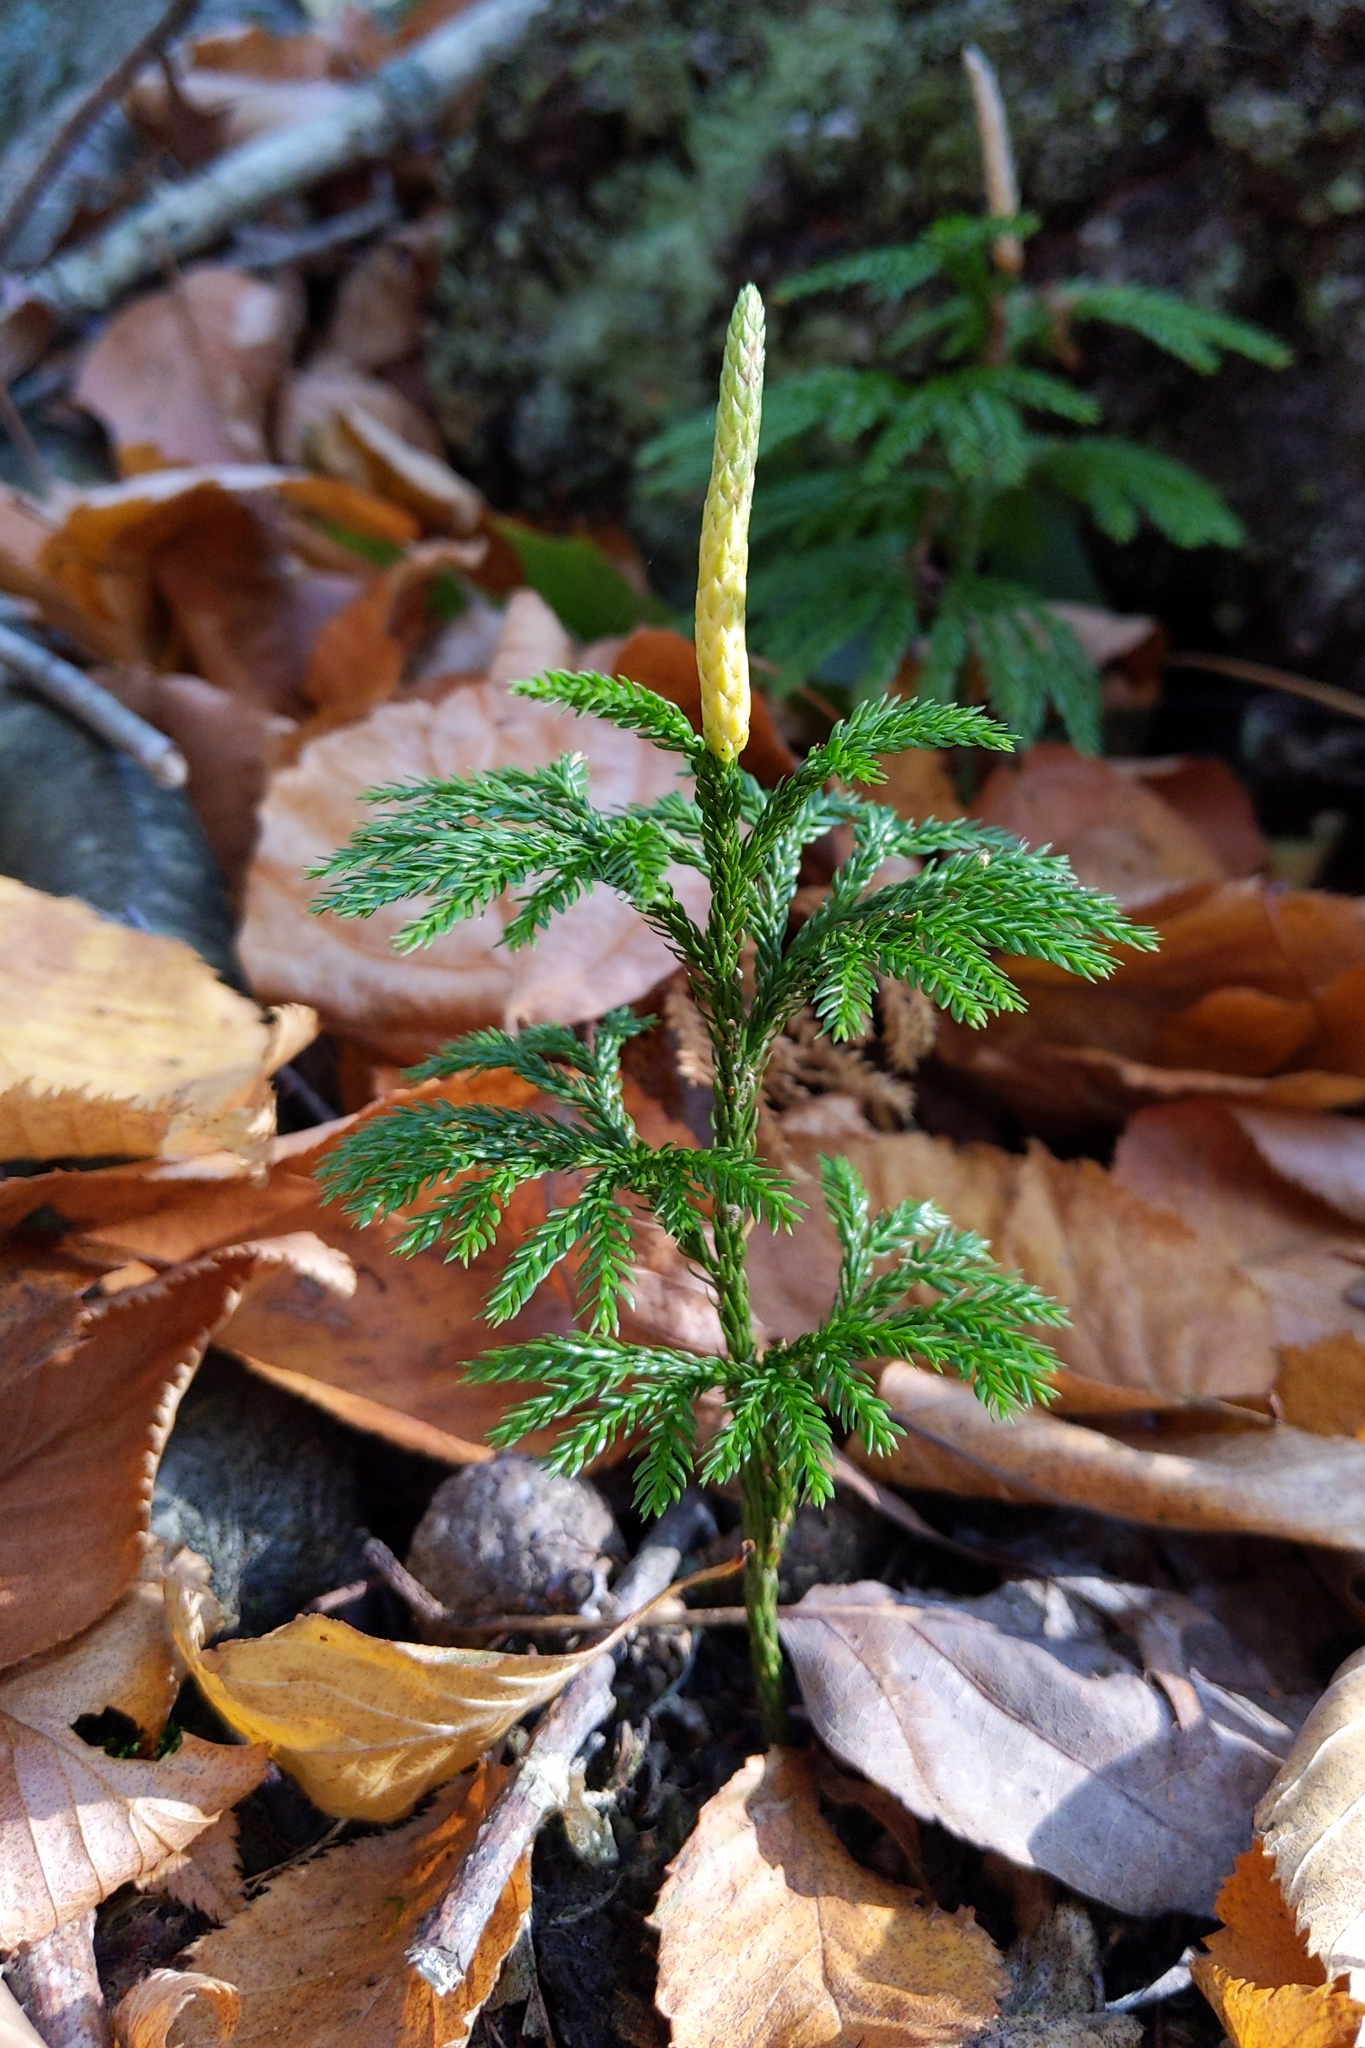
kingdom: Plantae
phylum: Tracheophyta
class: Lycopodiopsida
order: Lycopodiales
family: Lycopodiaceae
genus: Dendrolycopodium
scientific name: Dendrolycopodium obscurum
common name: Common ground-pine
